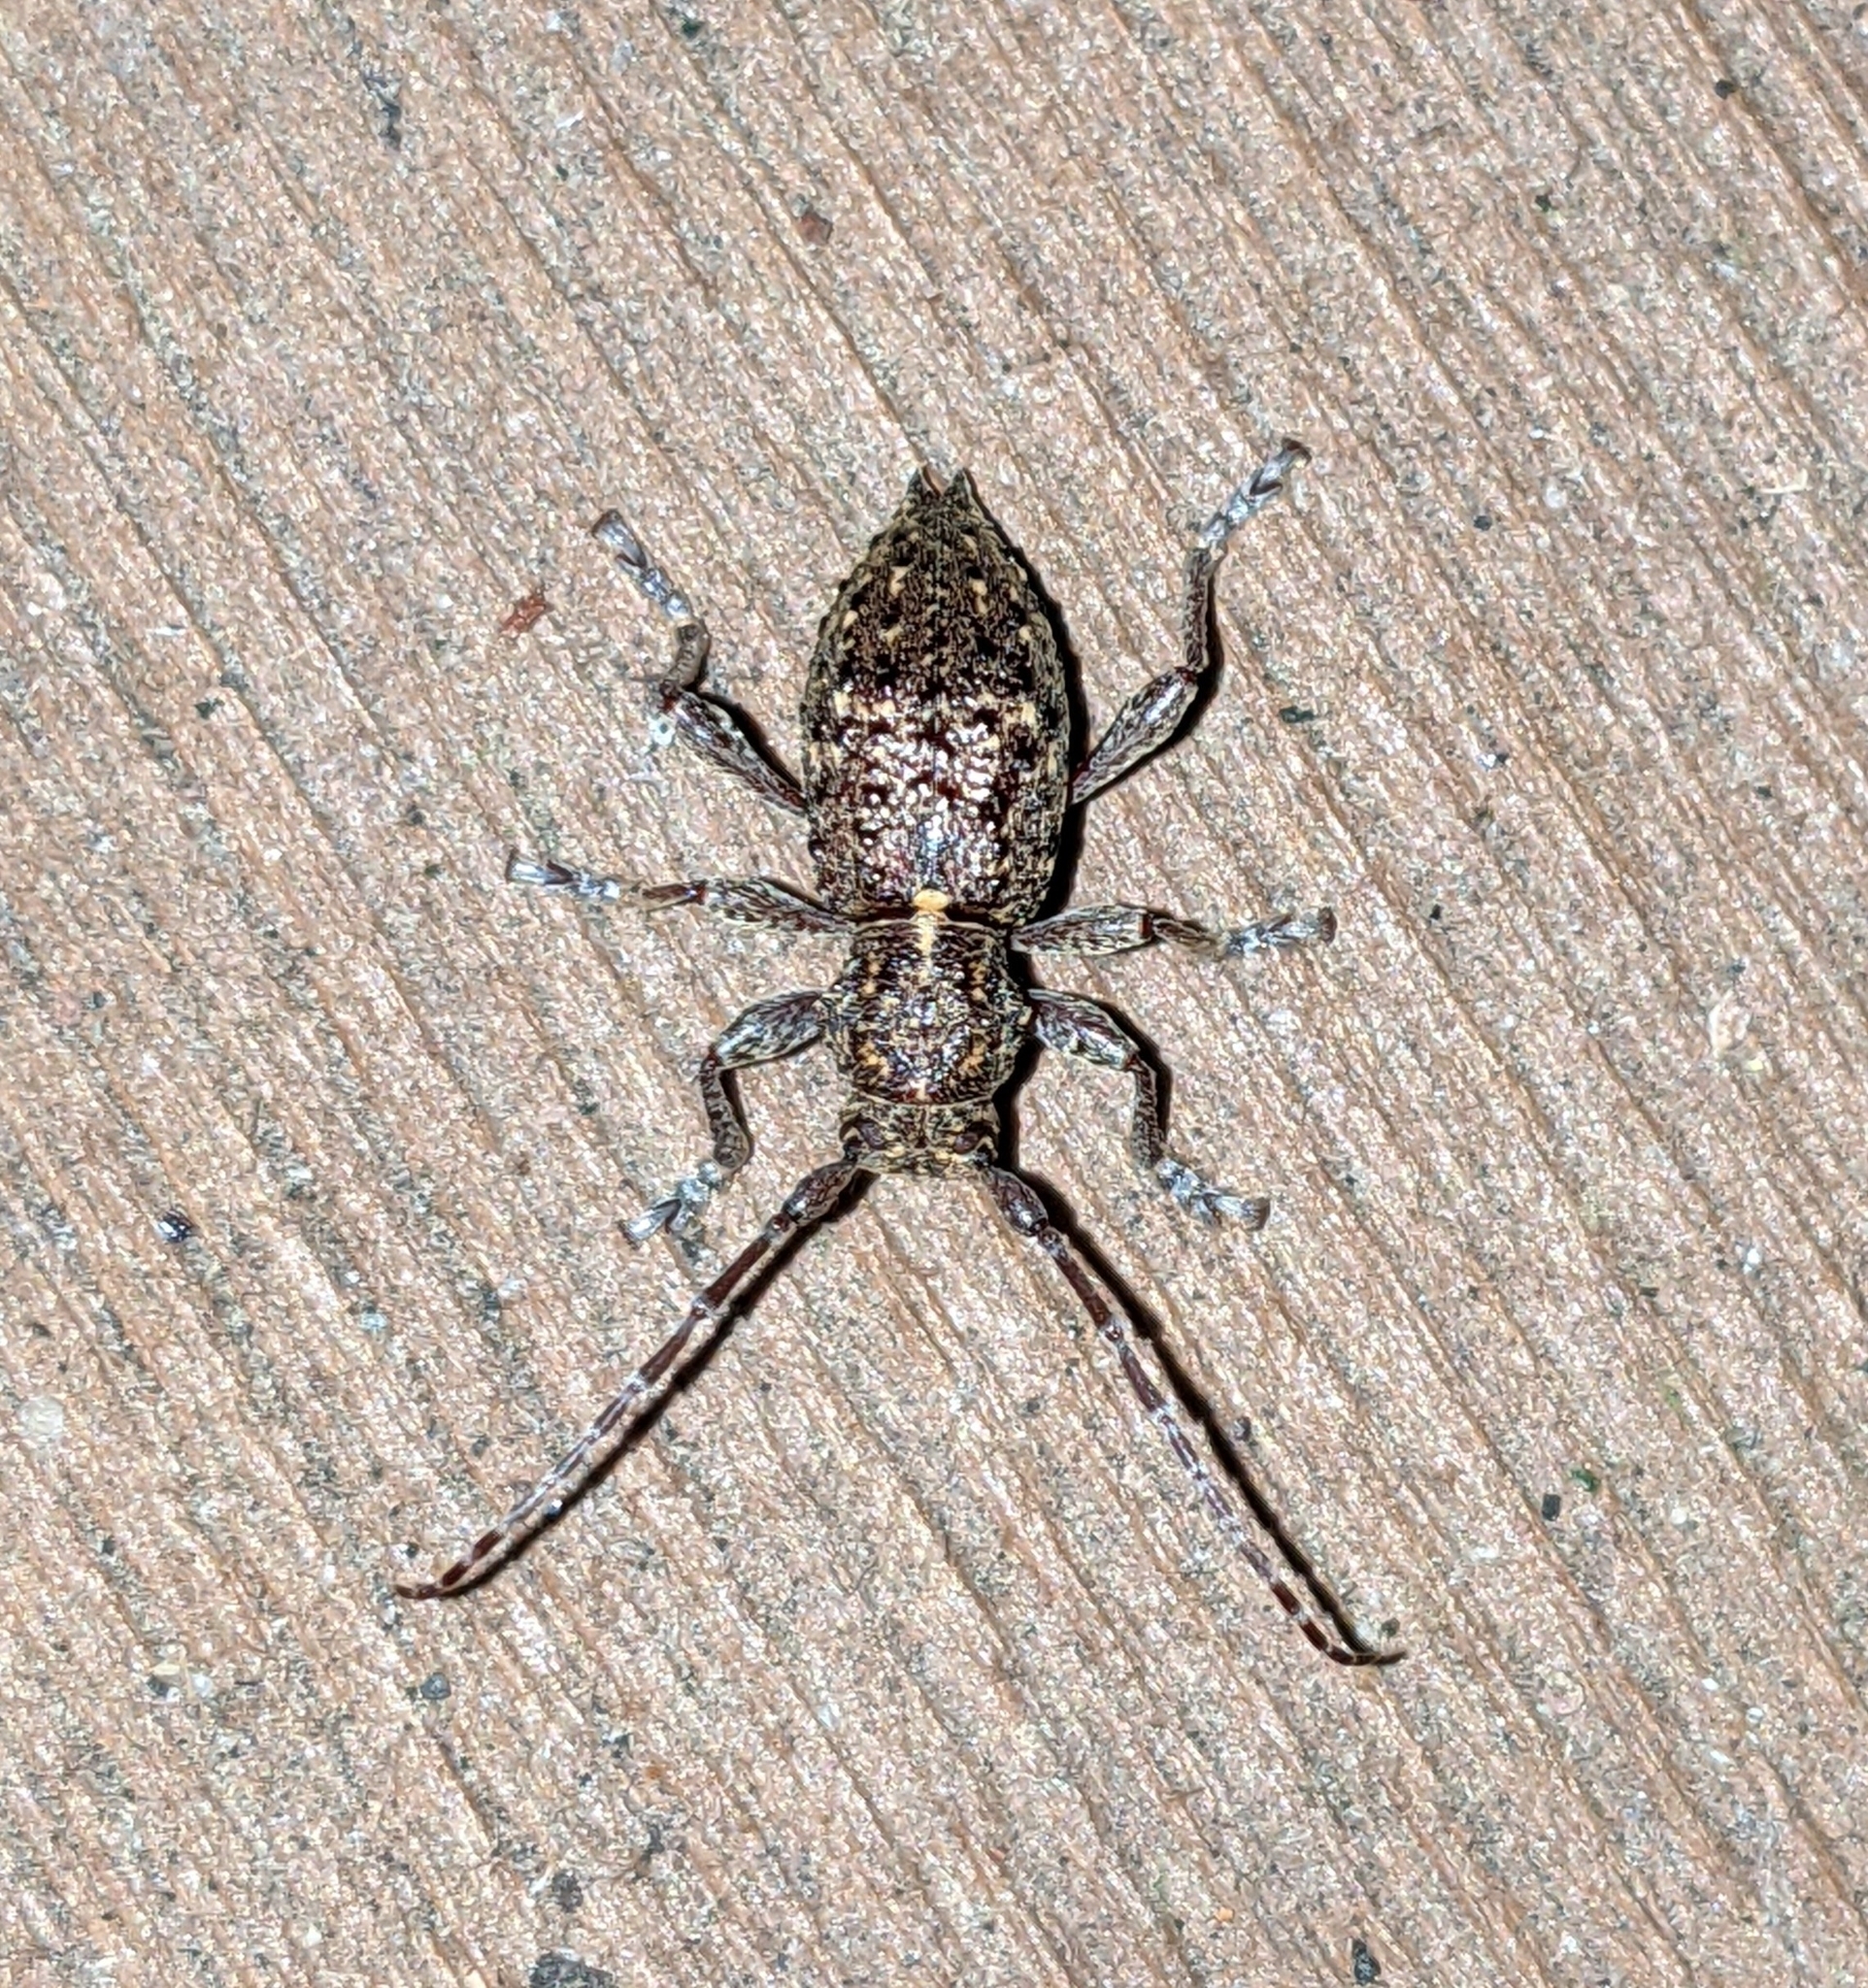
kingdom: Animalia
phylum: Arthropoda
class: Insecta
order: Coleoptera
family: Cerambycidae
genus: Plectrura
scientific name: Plectrura spinicauda
